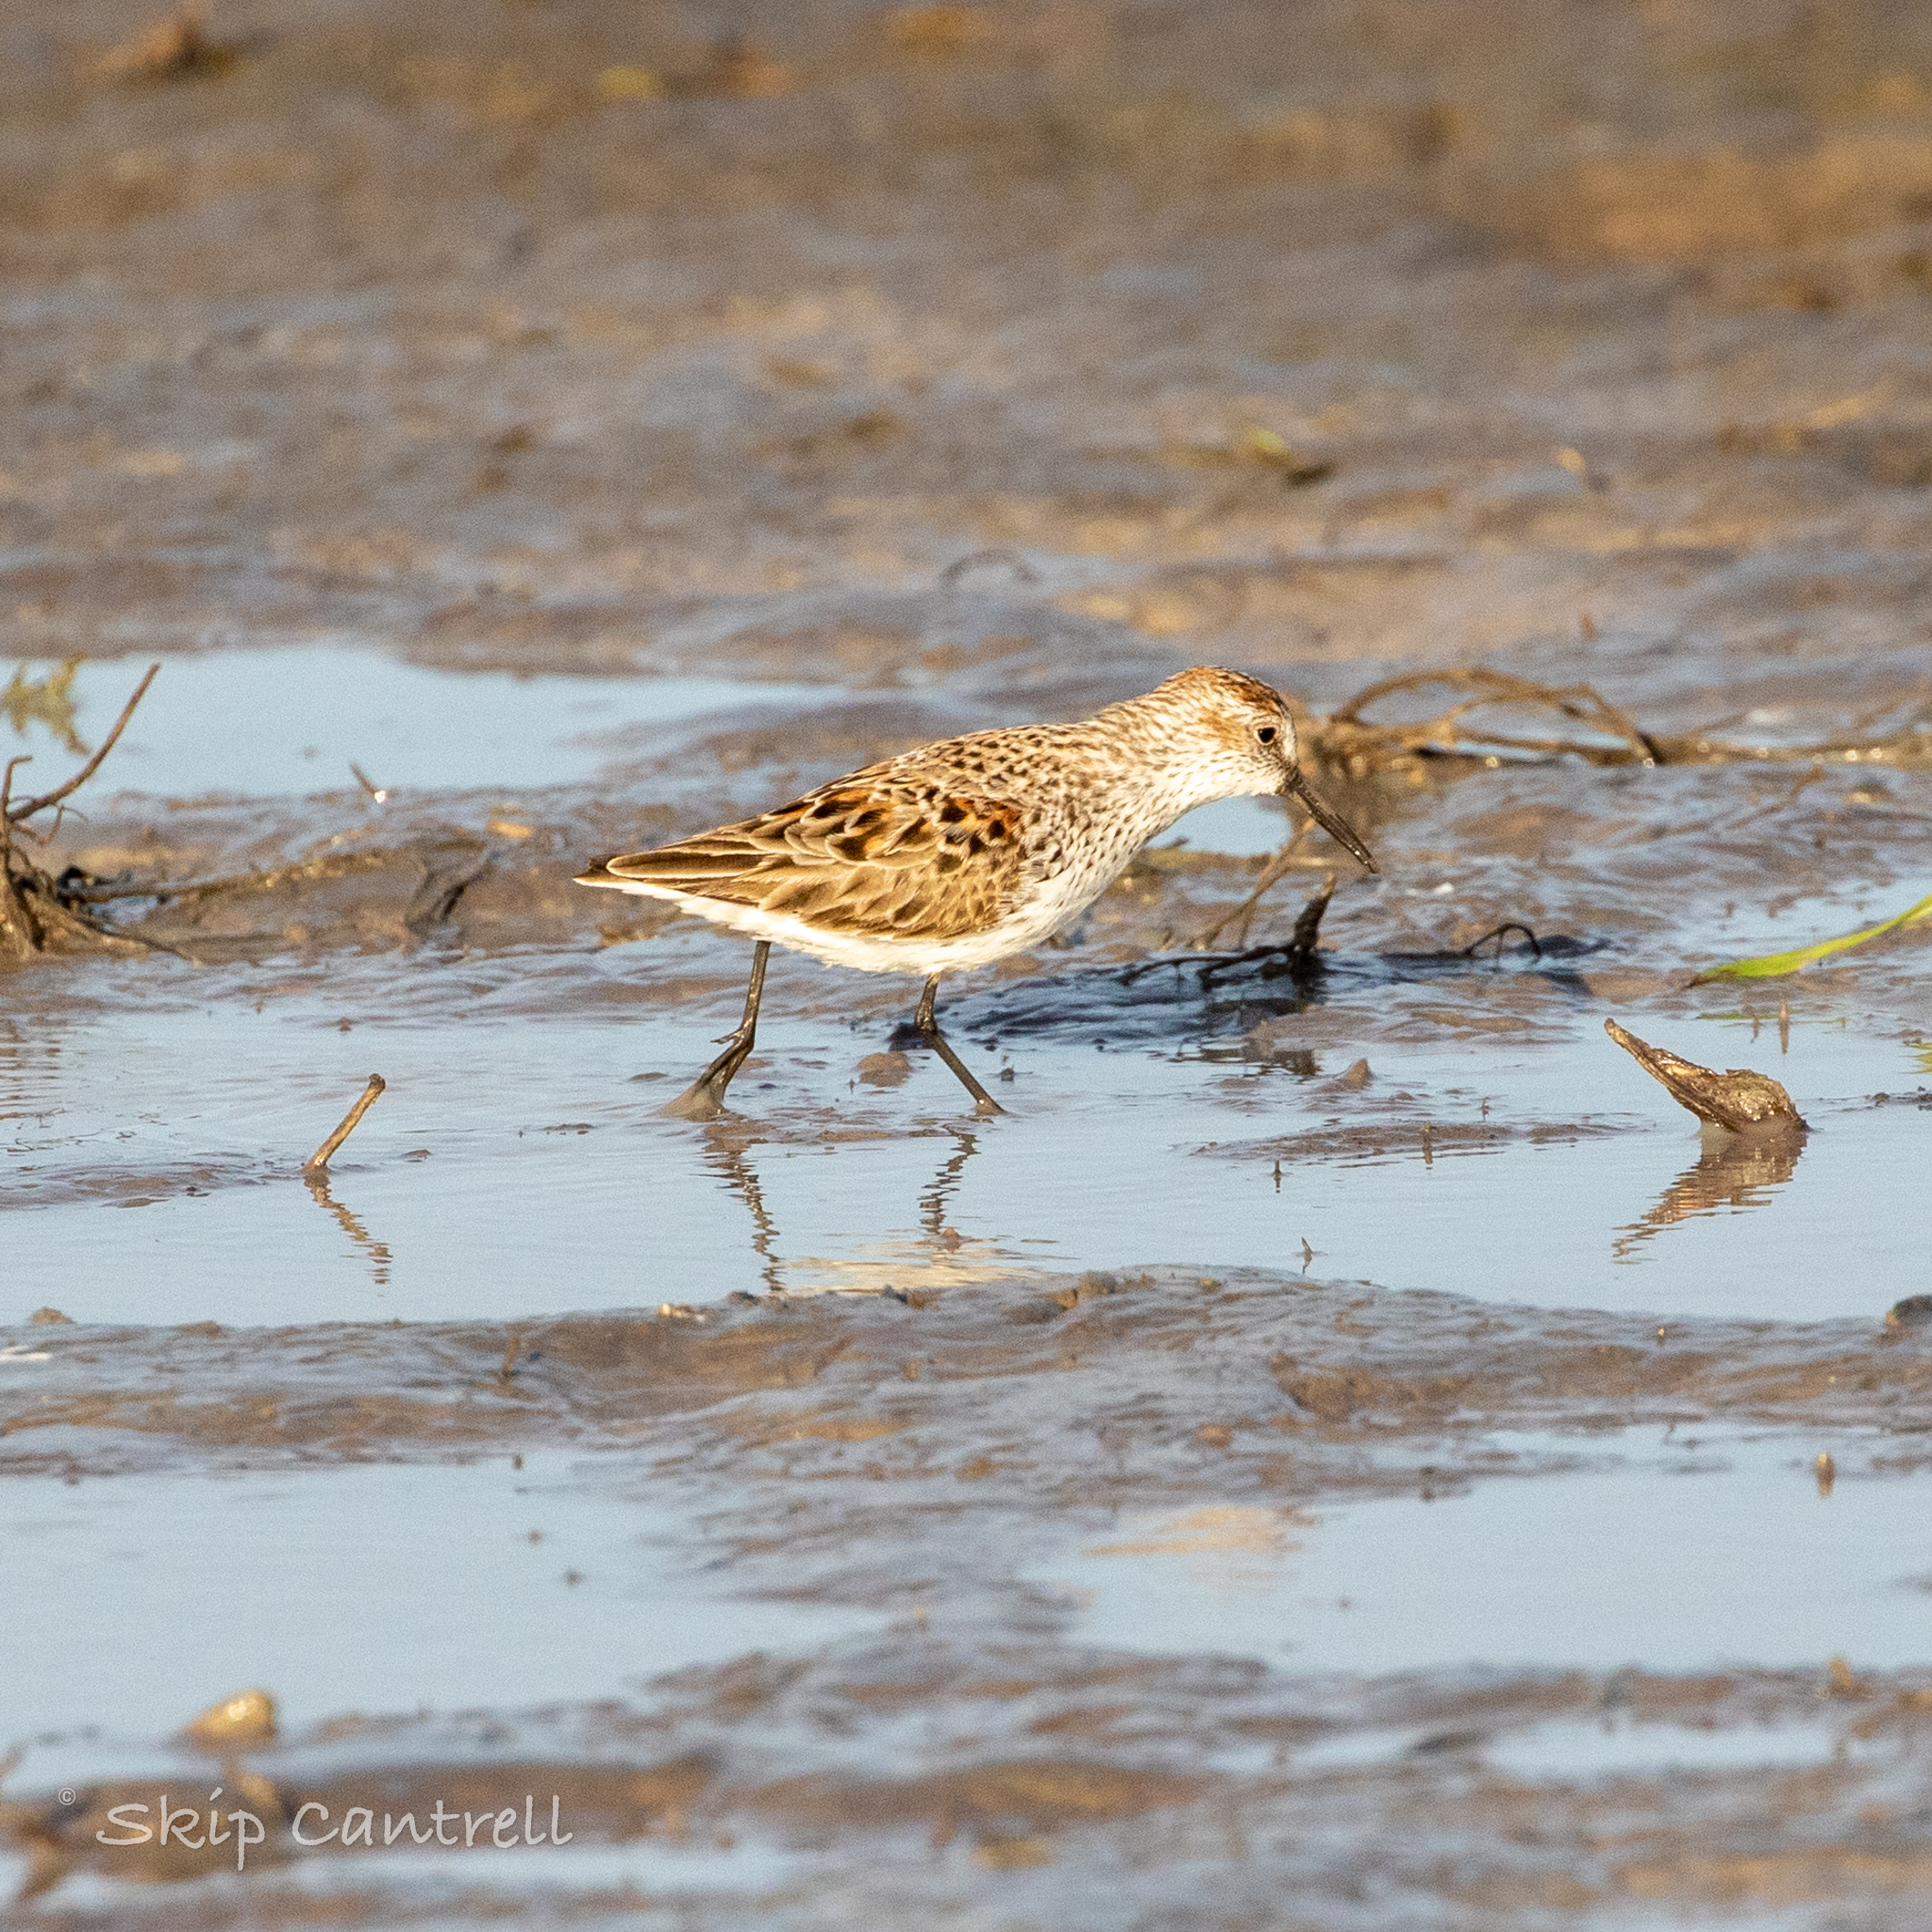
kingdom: Animalia
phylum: Chordata
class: Aves
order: Charadriiformes
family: Scolopacidae
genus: Calidris
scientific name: Calidris mauri
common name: Western sandpiper
